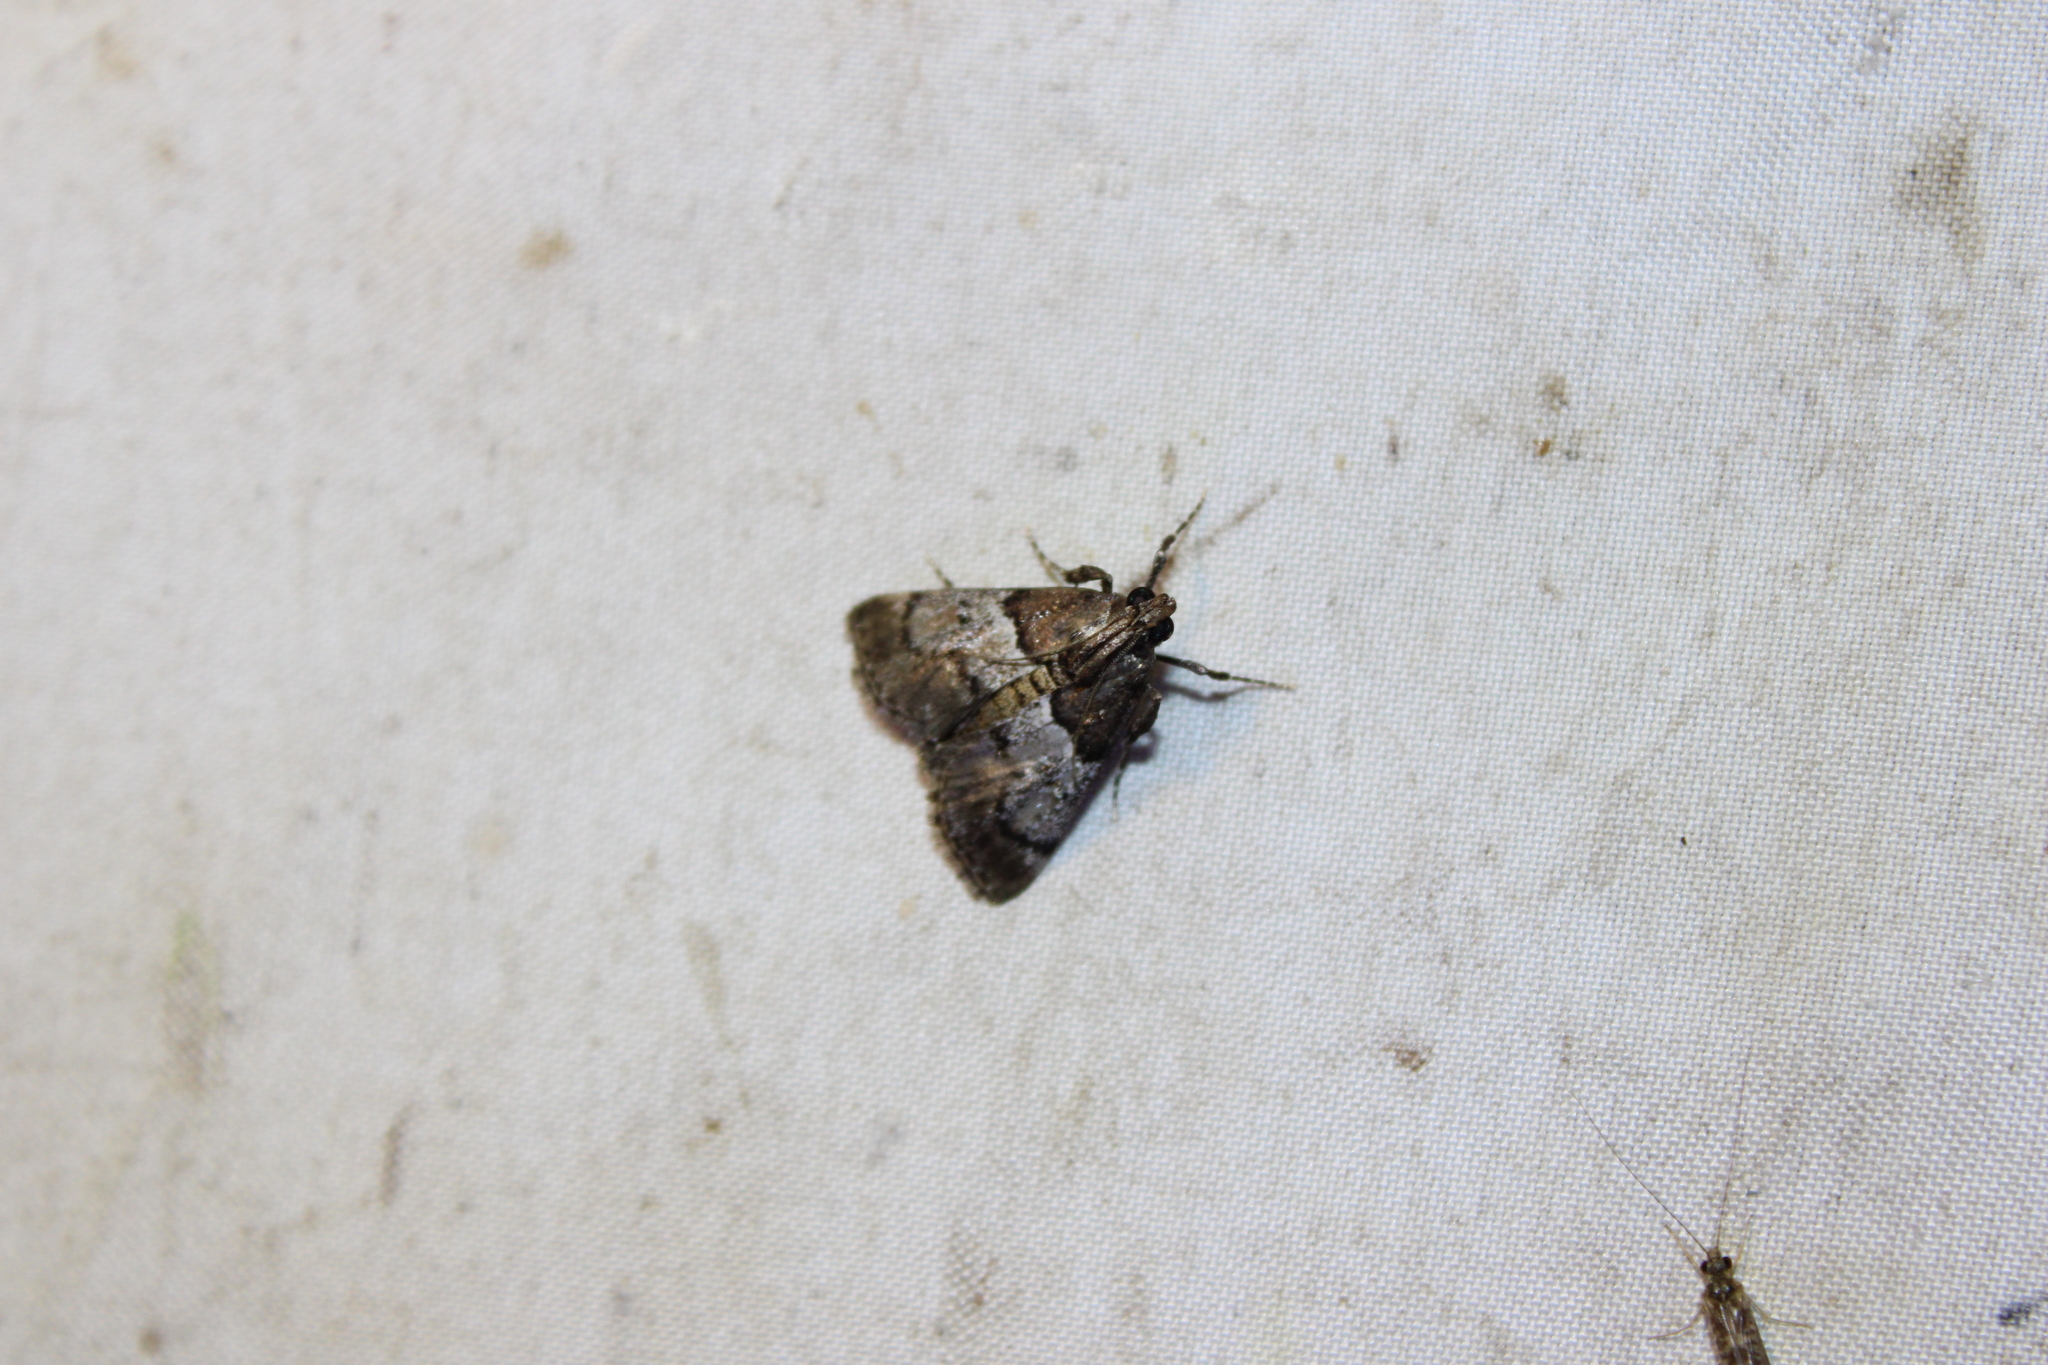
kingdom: Animalia
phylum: Arthropoda
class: Insecta
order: Lepidoptera
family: Pyralidae
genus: Macalla
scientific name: Macalla zelleri
